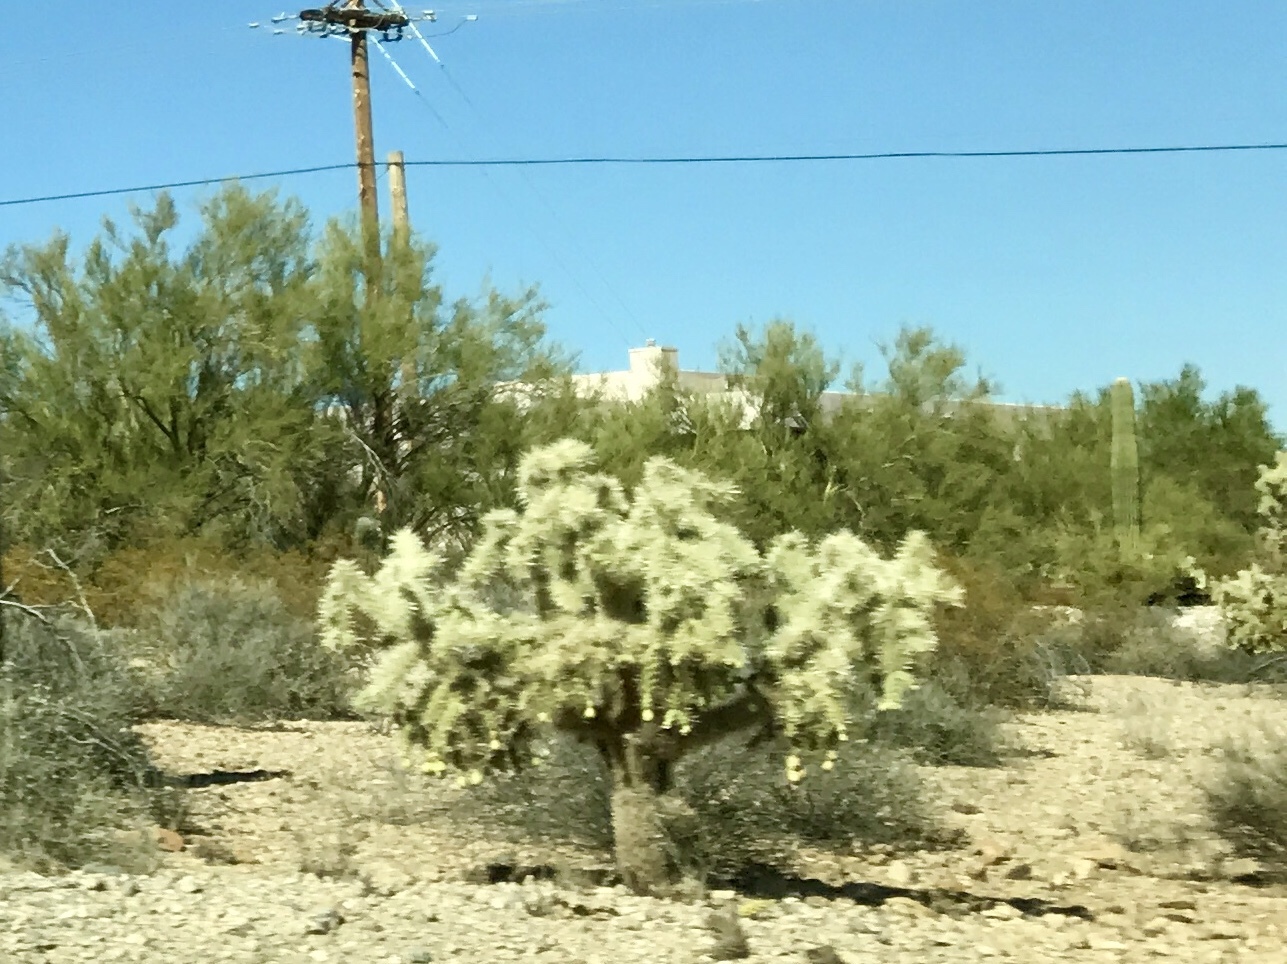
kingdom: Plantae
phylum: Tracheophyta
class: Magnoliopsida
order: Caryophyllales
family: Cactaceae
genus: Cylindropuntia
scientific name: Cylindropuntia fulgida
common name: Jumping cholla
